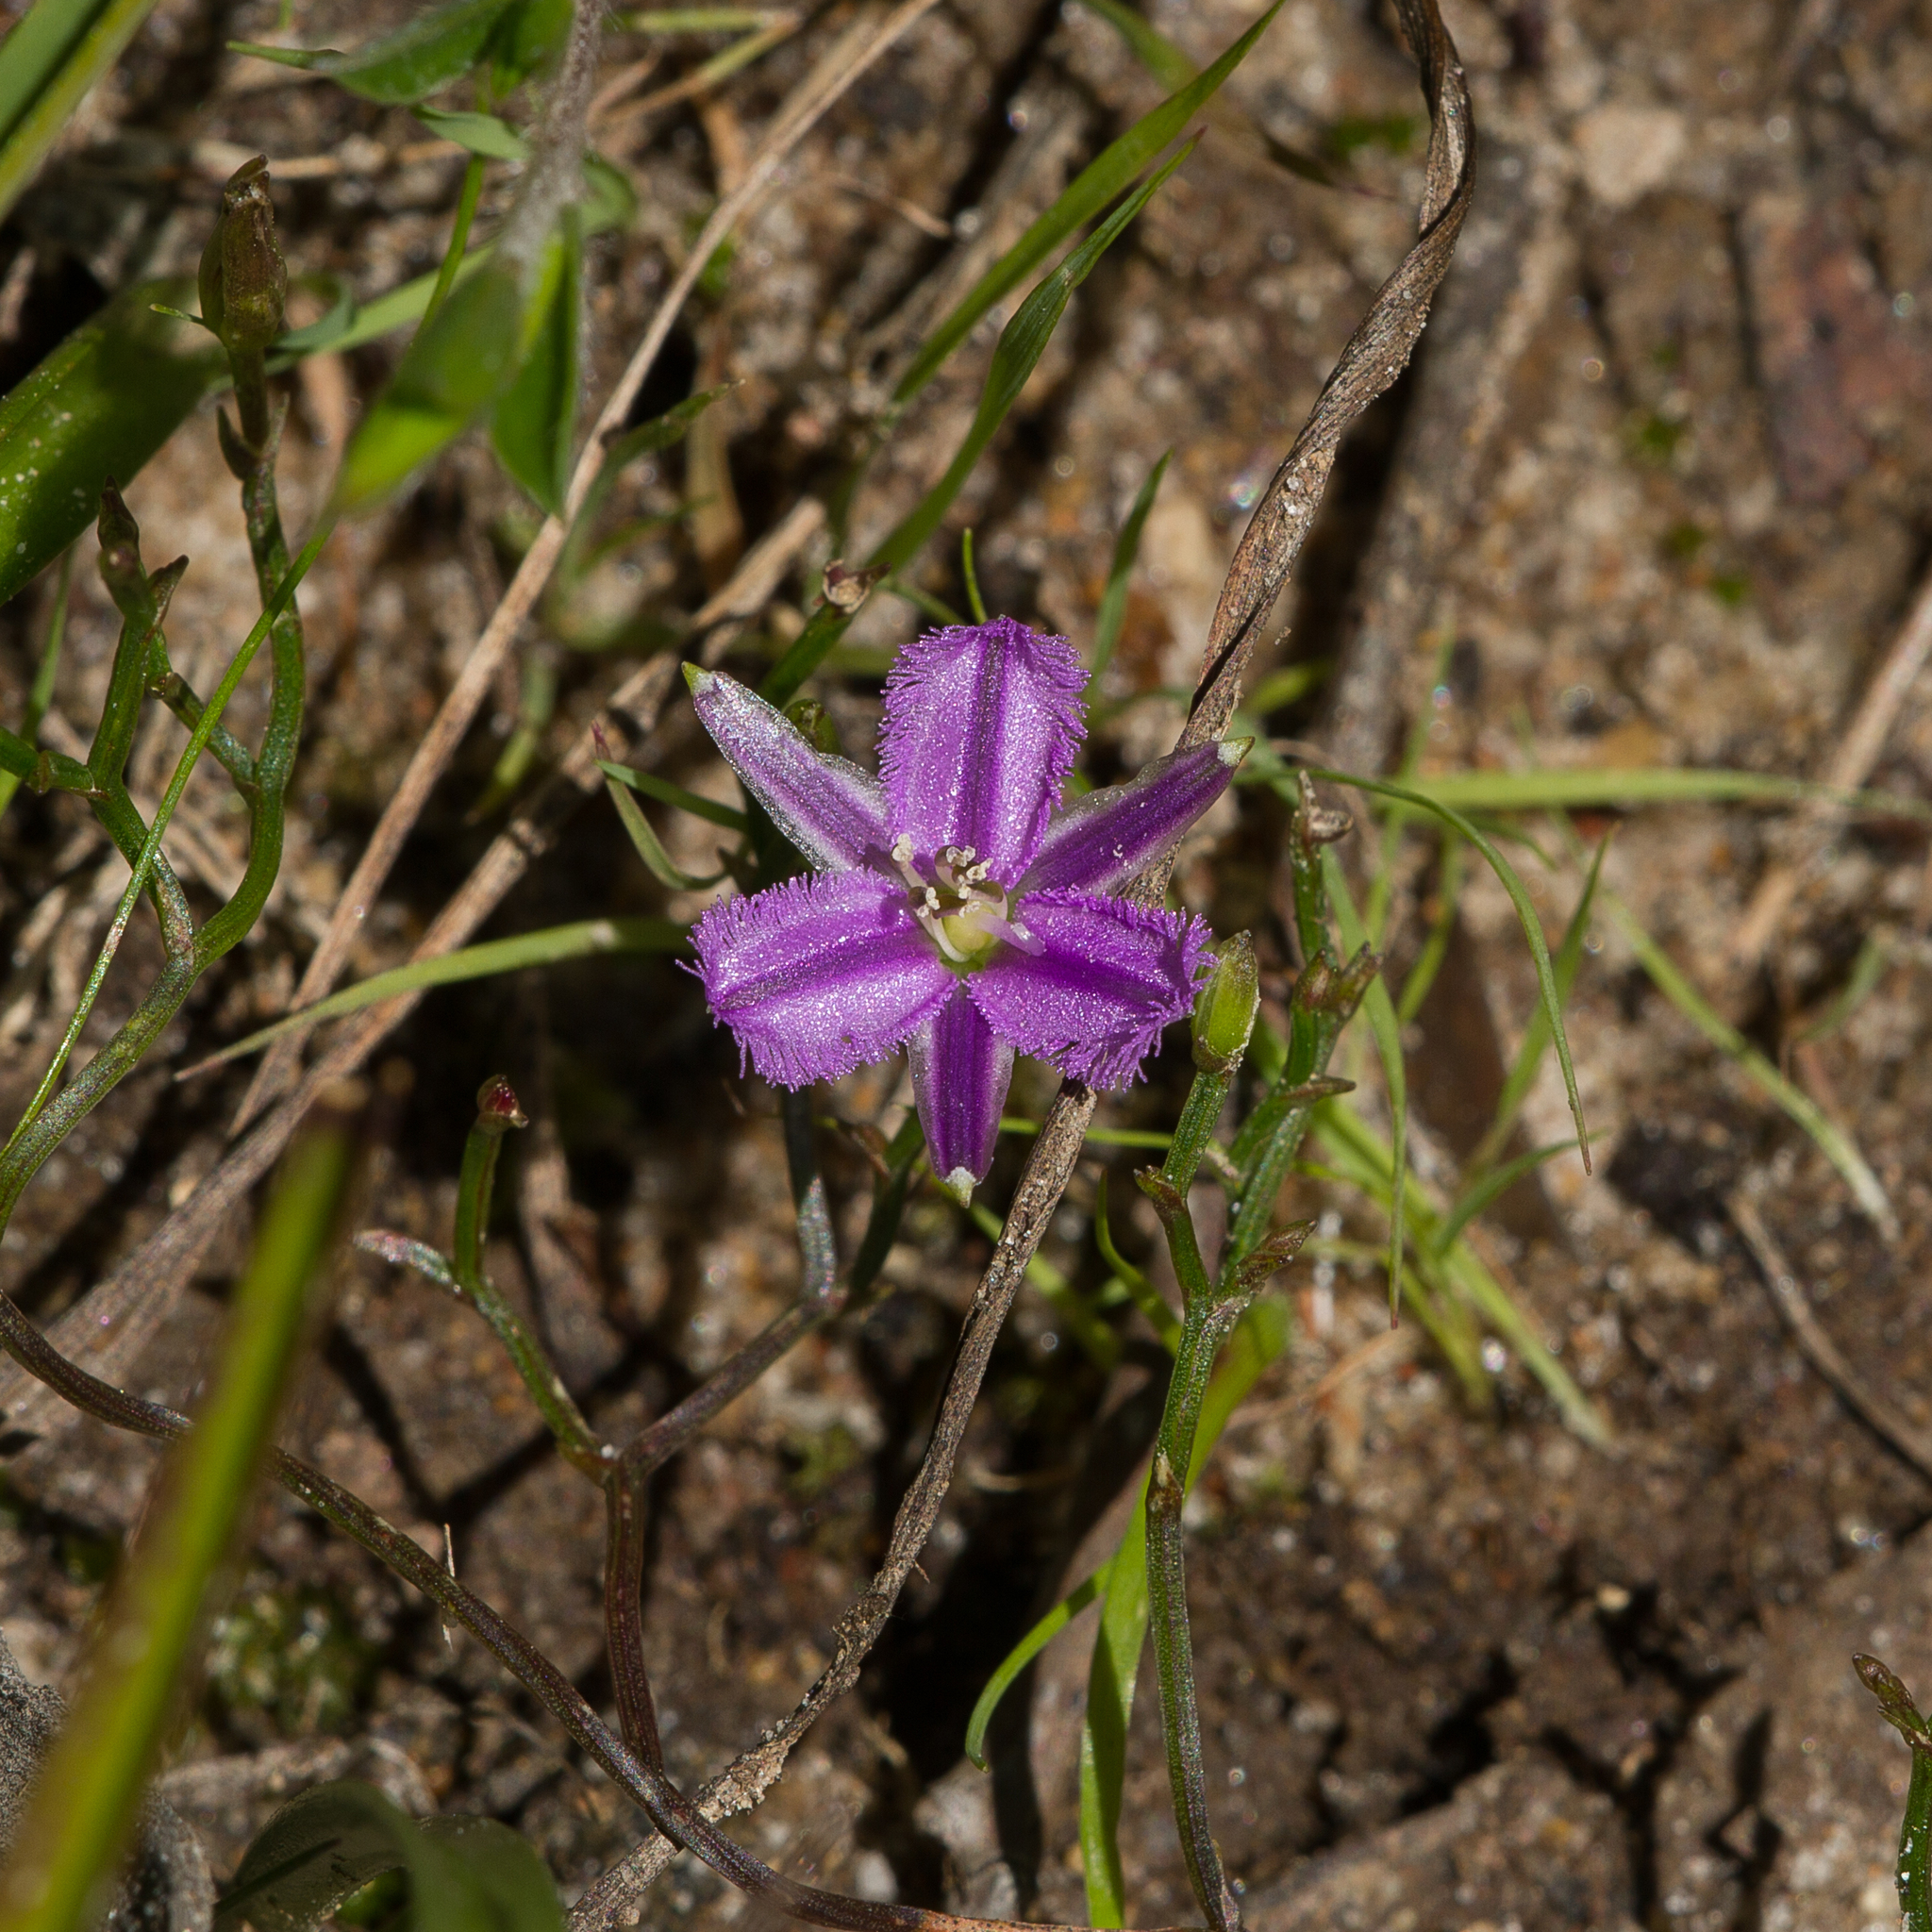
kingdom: Plantae
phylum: Tracheophyta
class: Liliopsida
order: Asparagales
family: Asparagaceae
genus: Thysanotus
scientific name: Thysanotus patersonii
